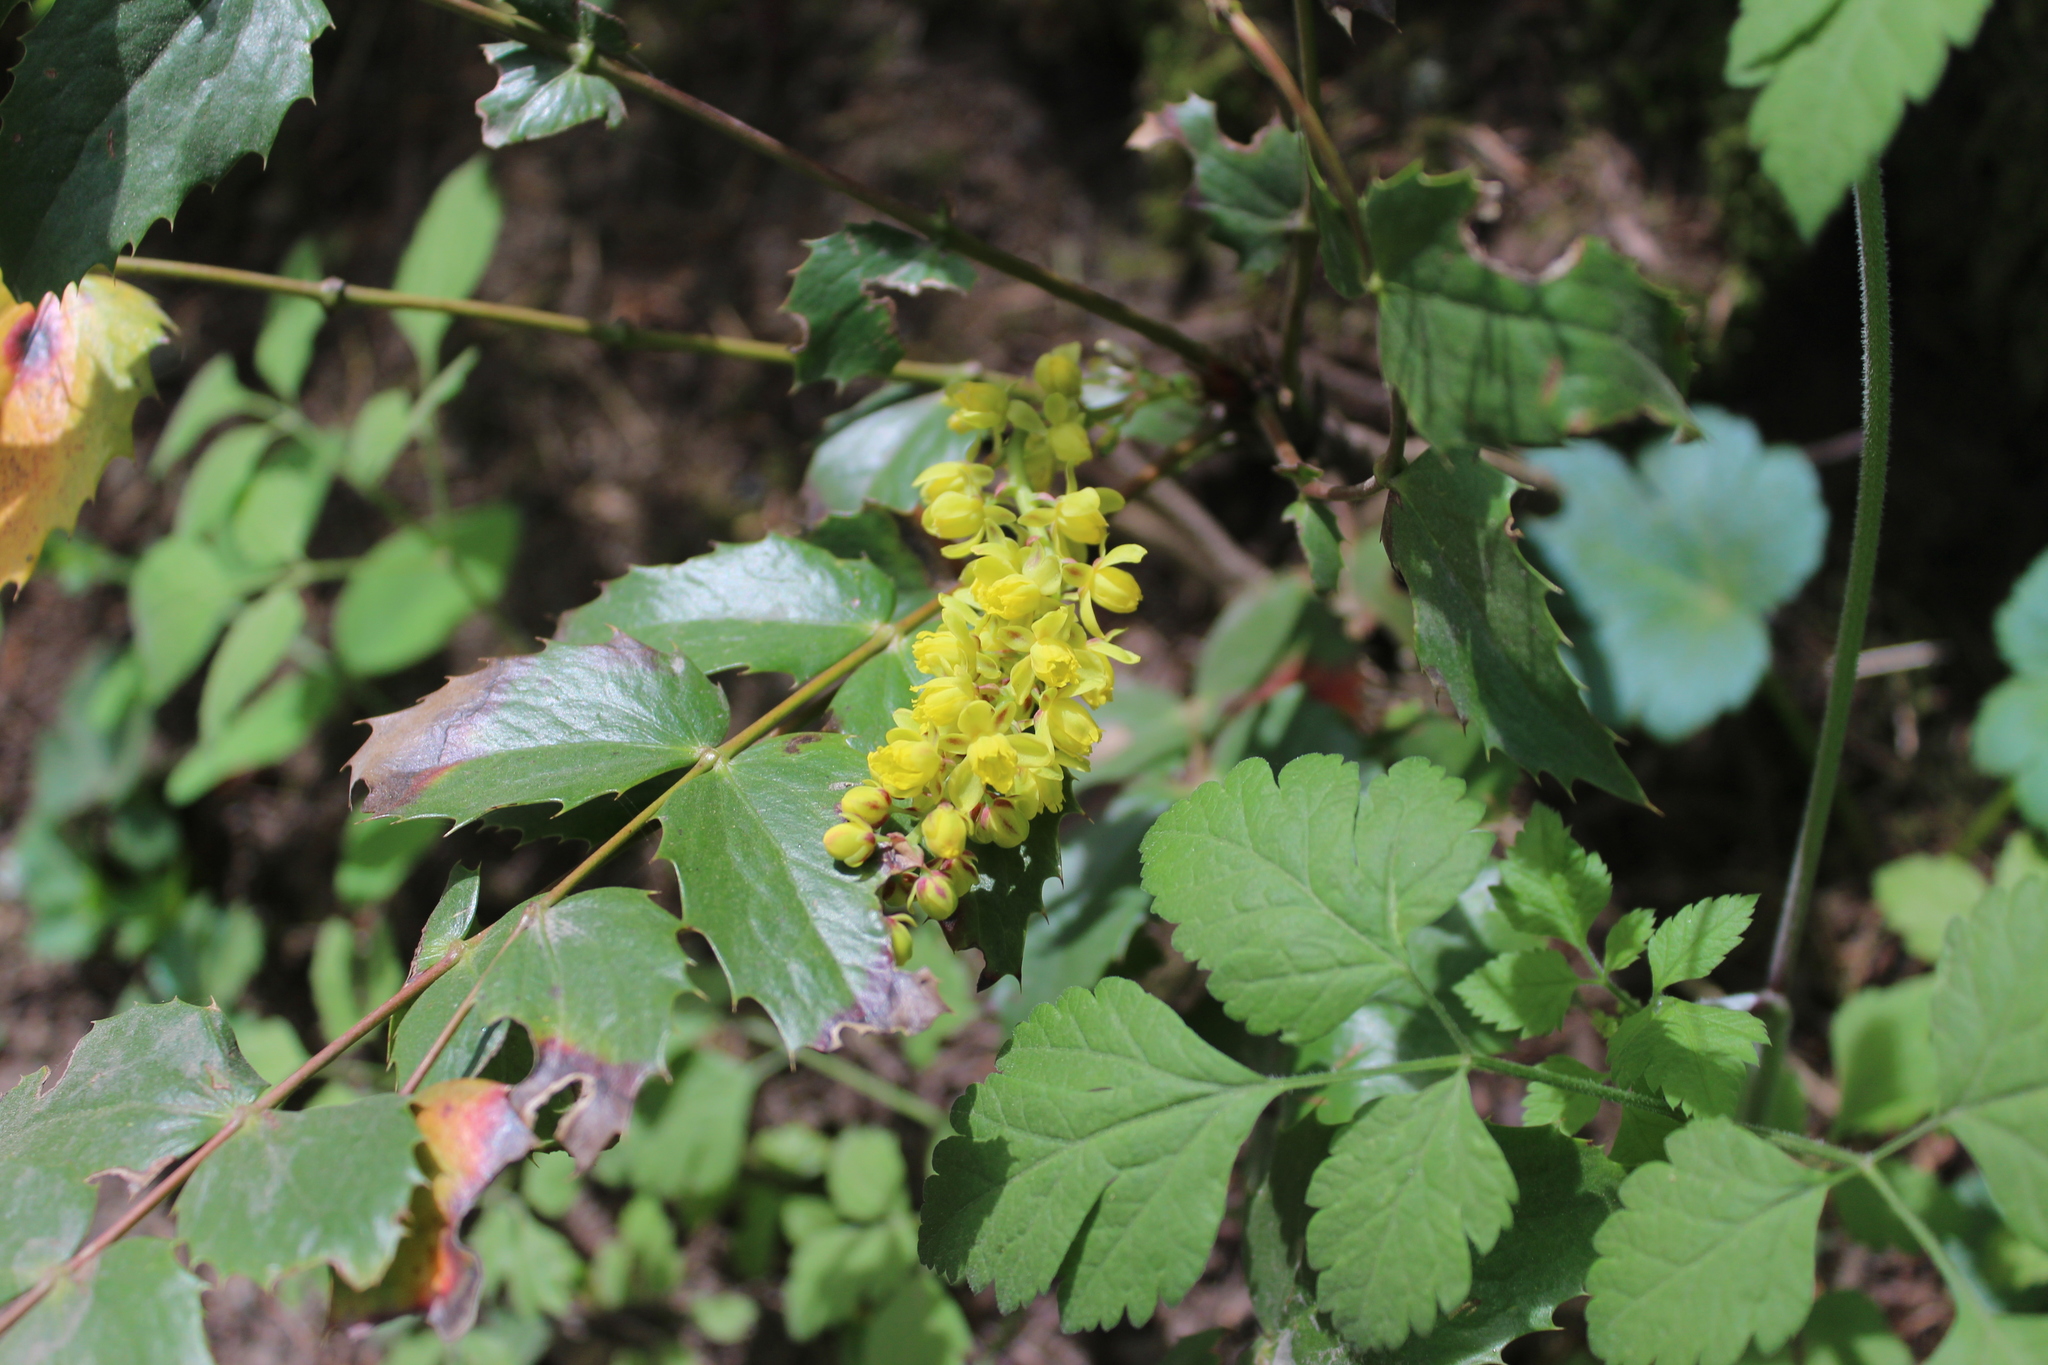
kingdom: Plantae
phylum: Tracheophyta
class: Magnoliopsida
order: Ranunculales
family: Berberidaceae
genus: Mahonia
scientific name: Mahonia nervosa
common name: Cascade oregon-grape
